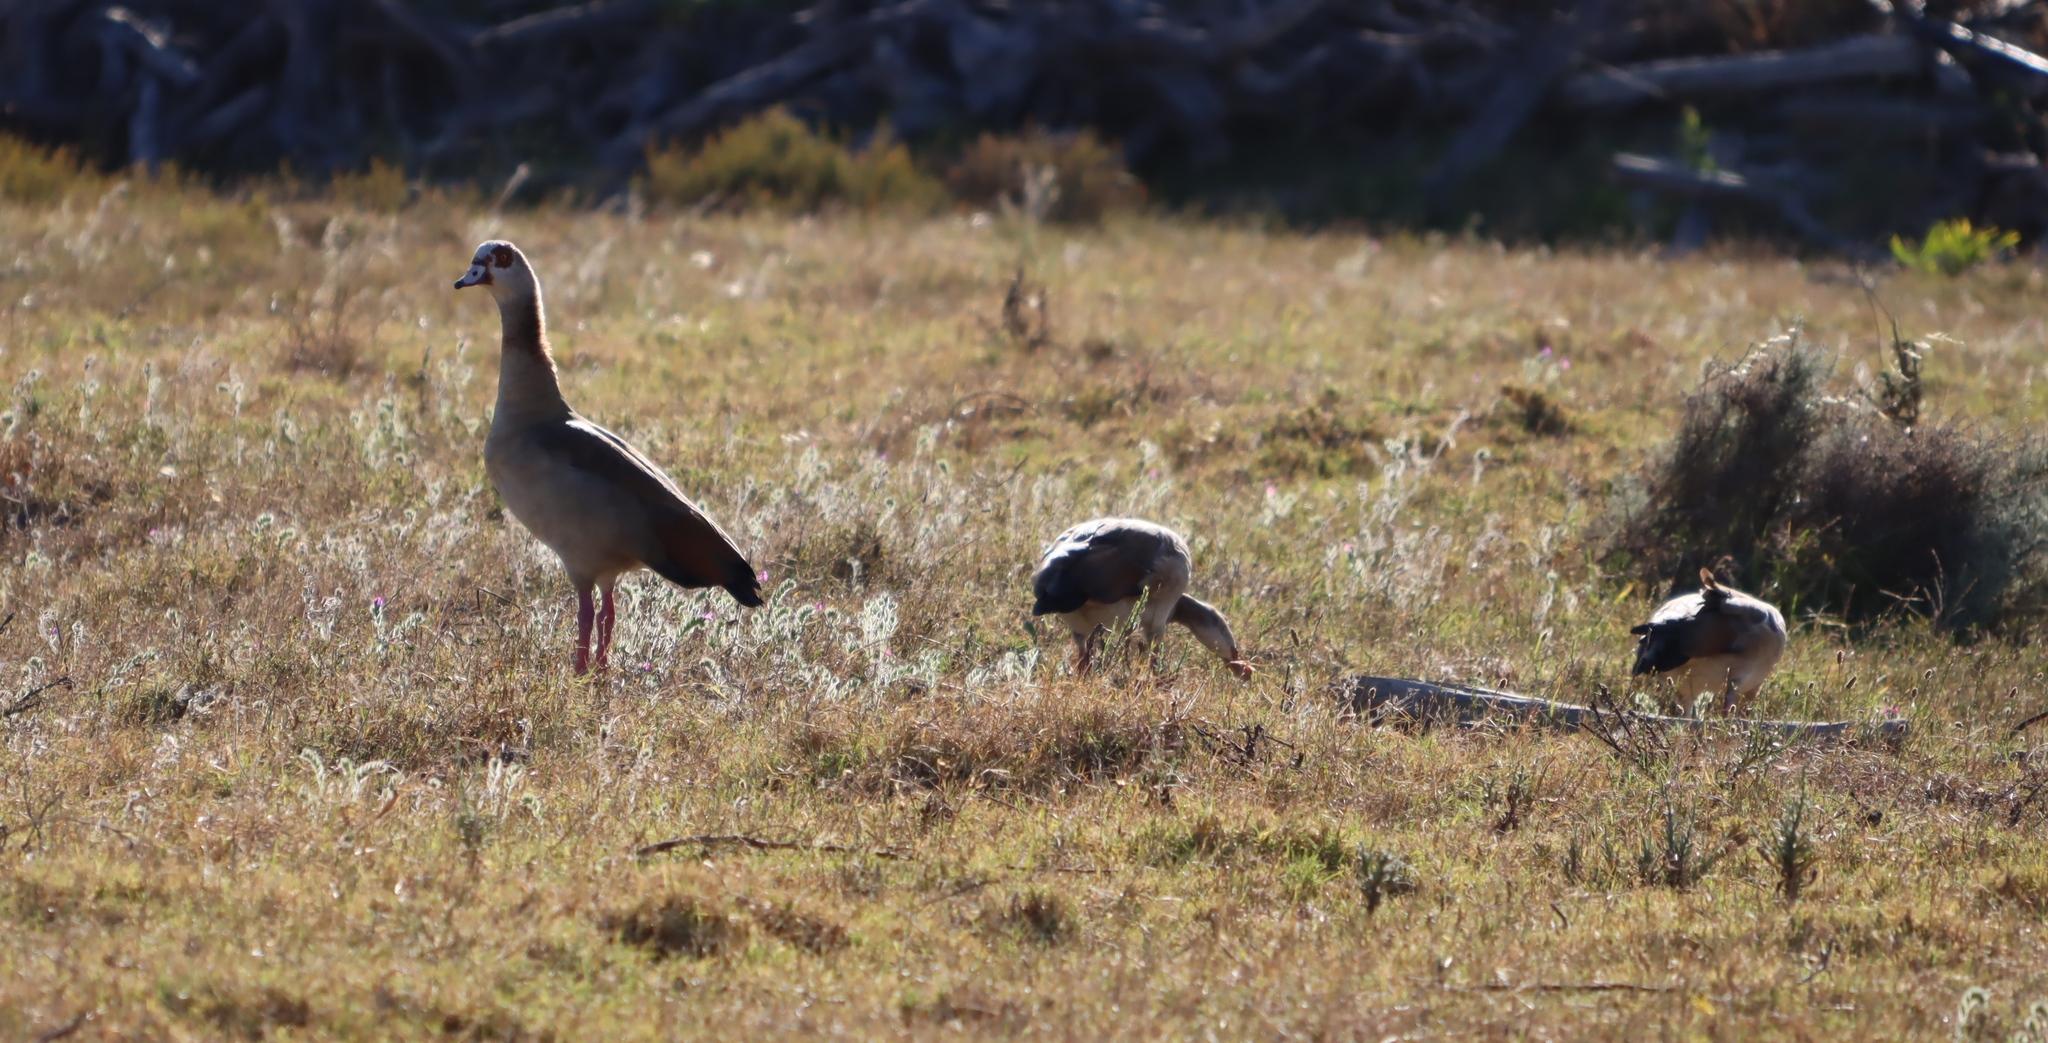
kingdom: Animalia
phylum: Chordata
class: Aves
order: Anseriformes
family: Anatidae
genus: Alopochen
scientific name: Alopochen aegyptiaca
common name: Egyptian goose
